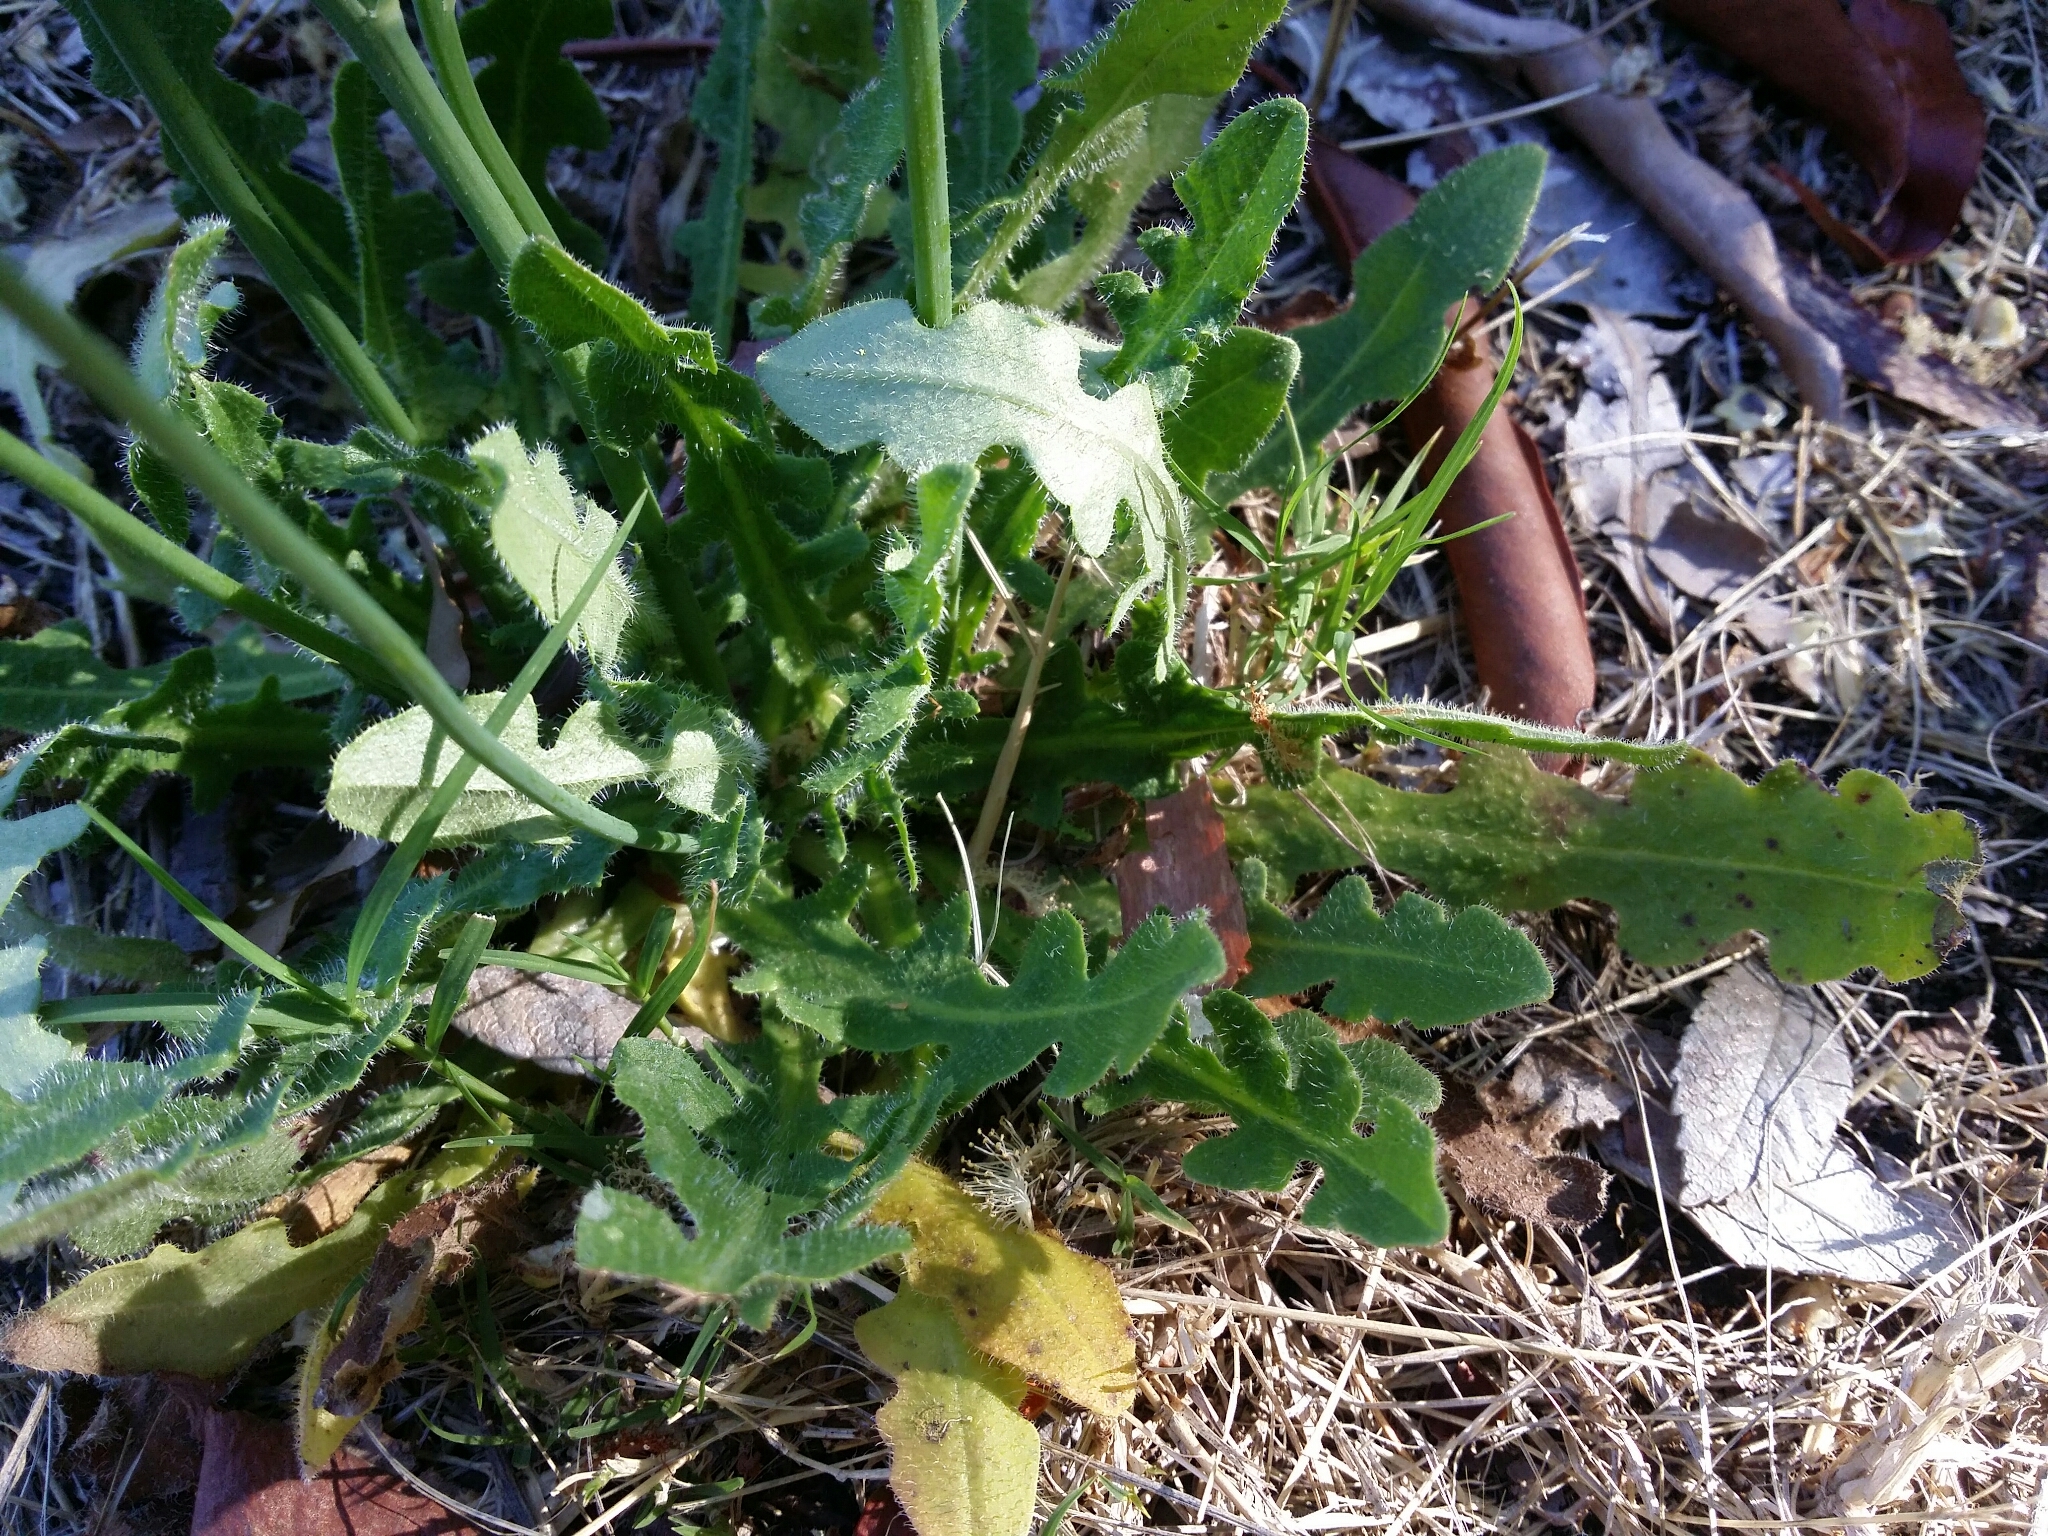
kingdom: Plantae
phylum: Tracheophyta
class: Magnoliopsida
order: Asterales
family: Asteraceae
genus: Hypochaeris
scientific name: Hypochaeris radicata
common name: Flatweed
